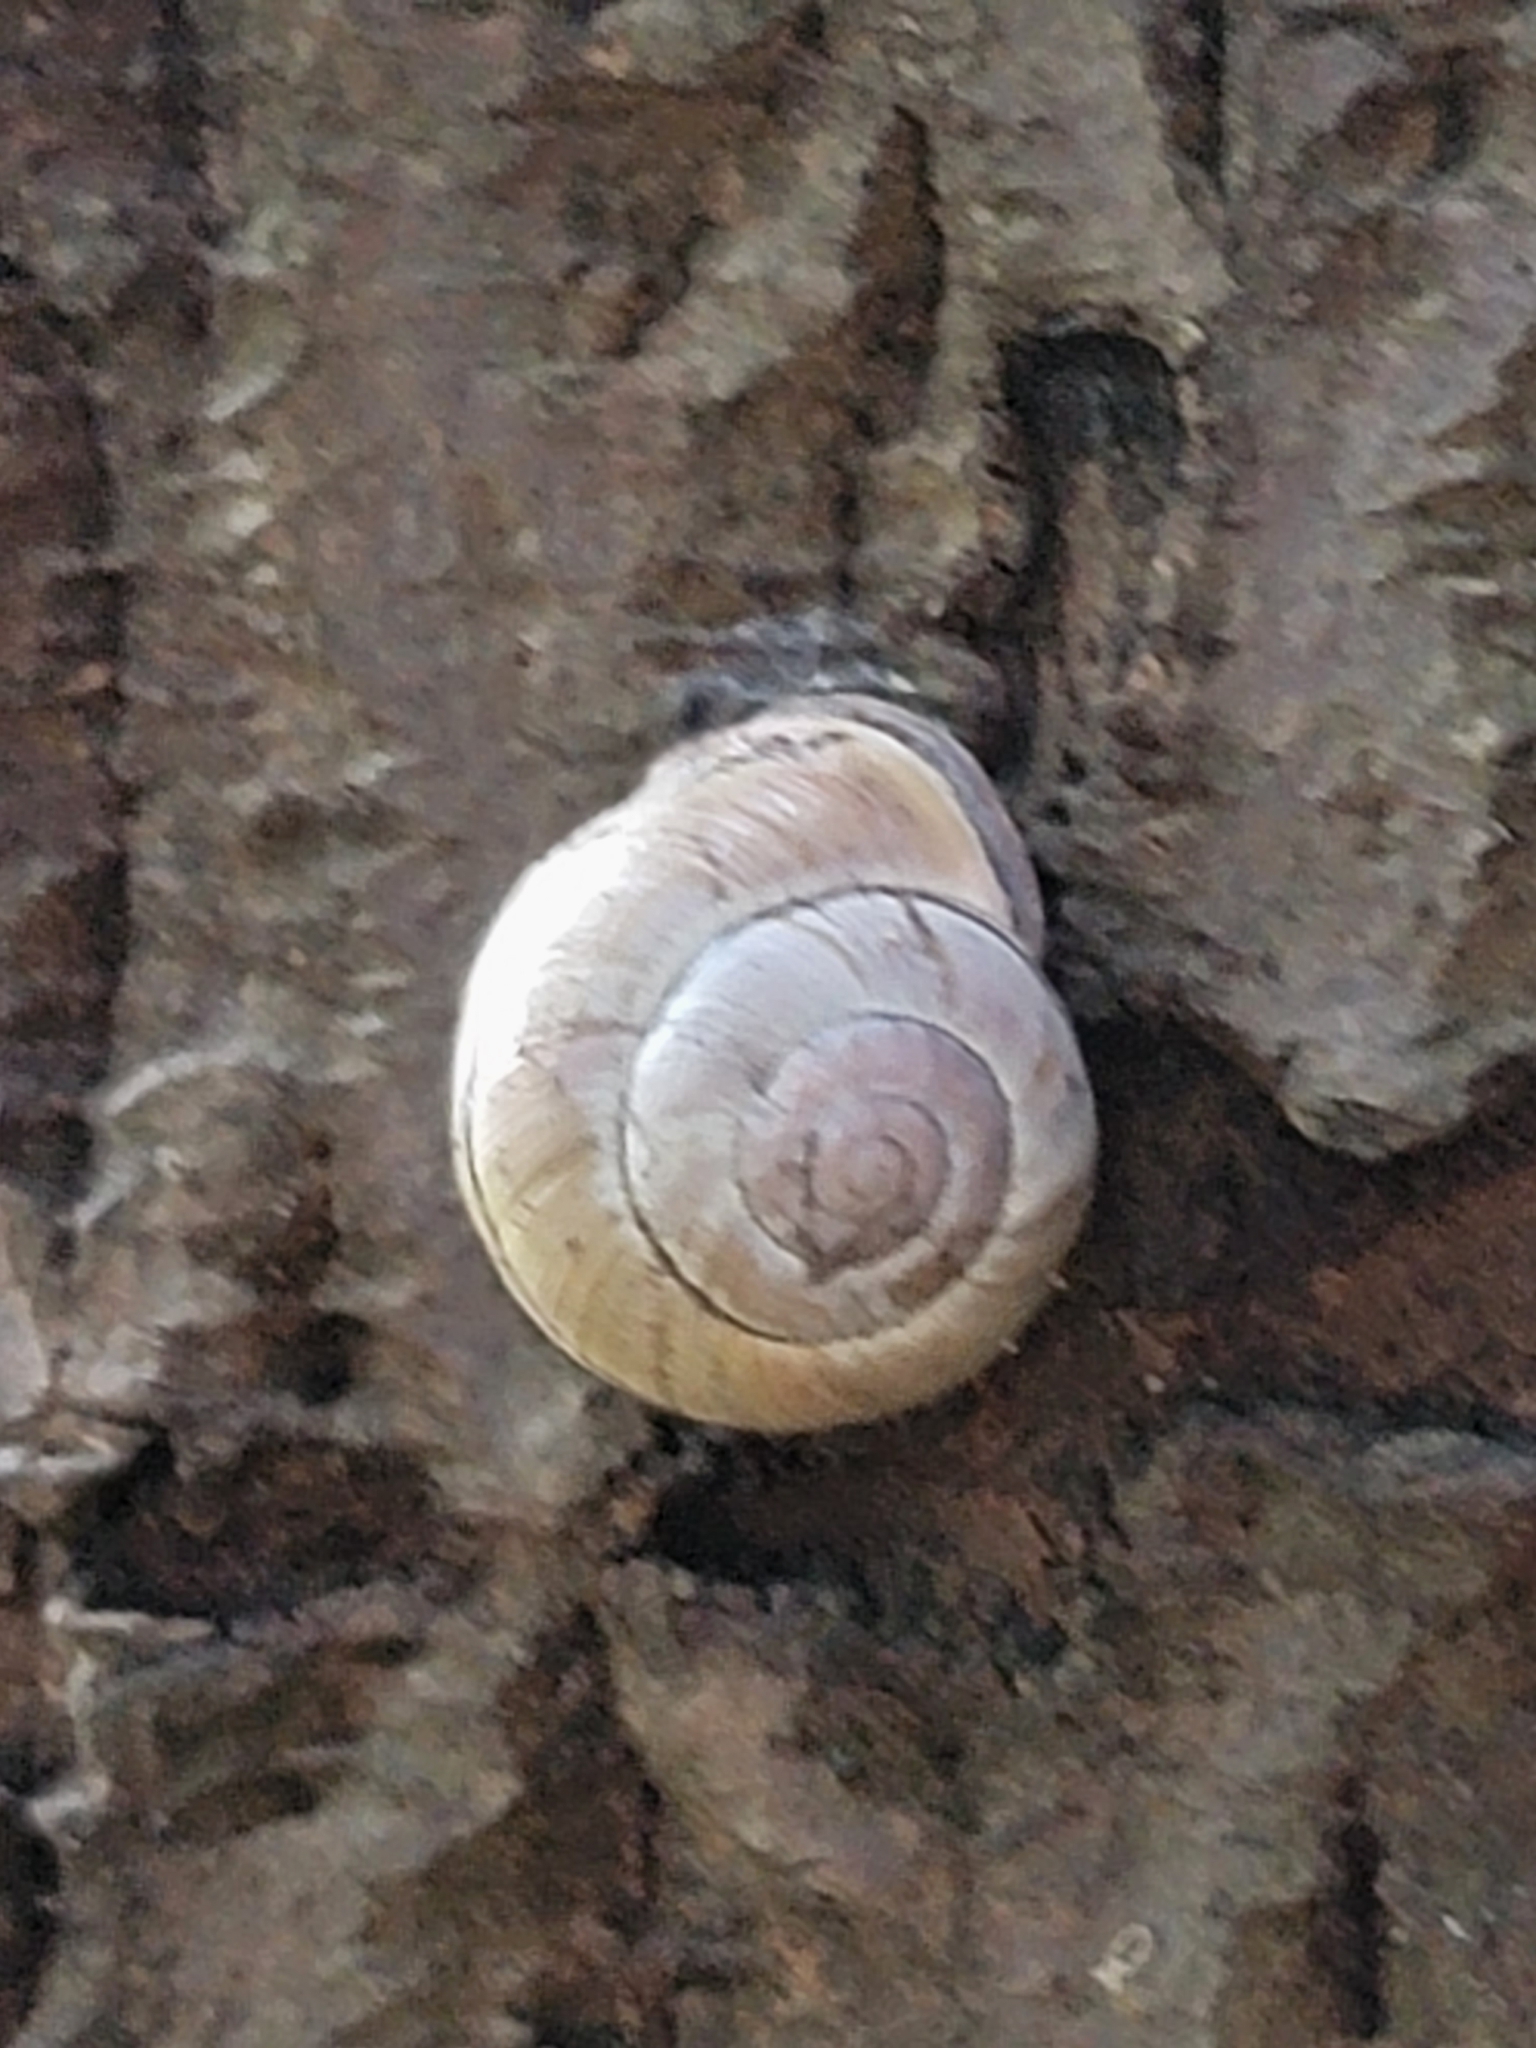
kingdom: Animalia
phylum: Mollusca
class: Gastropoda
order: Stylommatophora
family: Helicidae
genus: Cepaea
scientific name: Cepaea nemoralis
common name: Grovesnail
